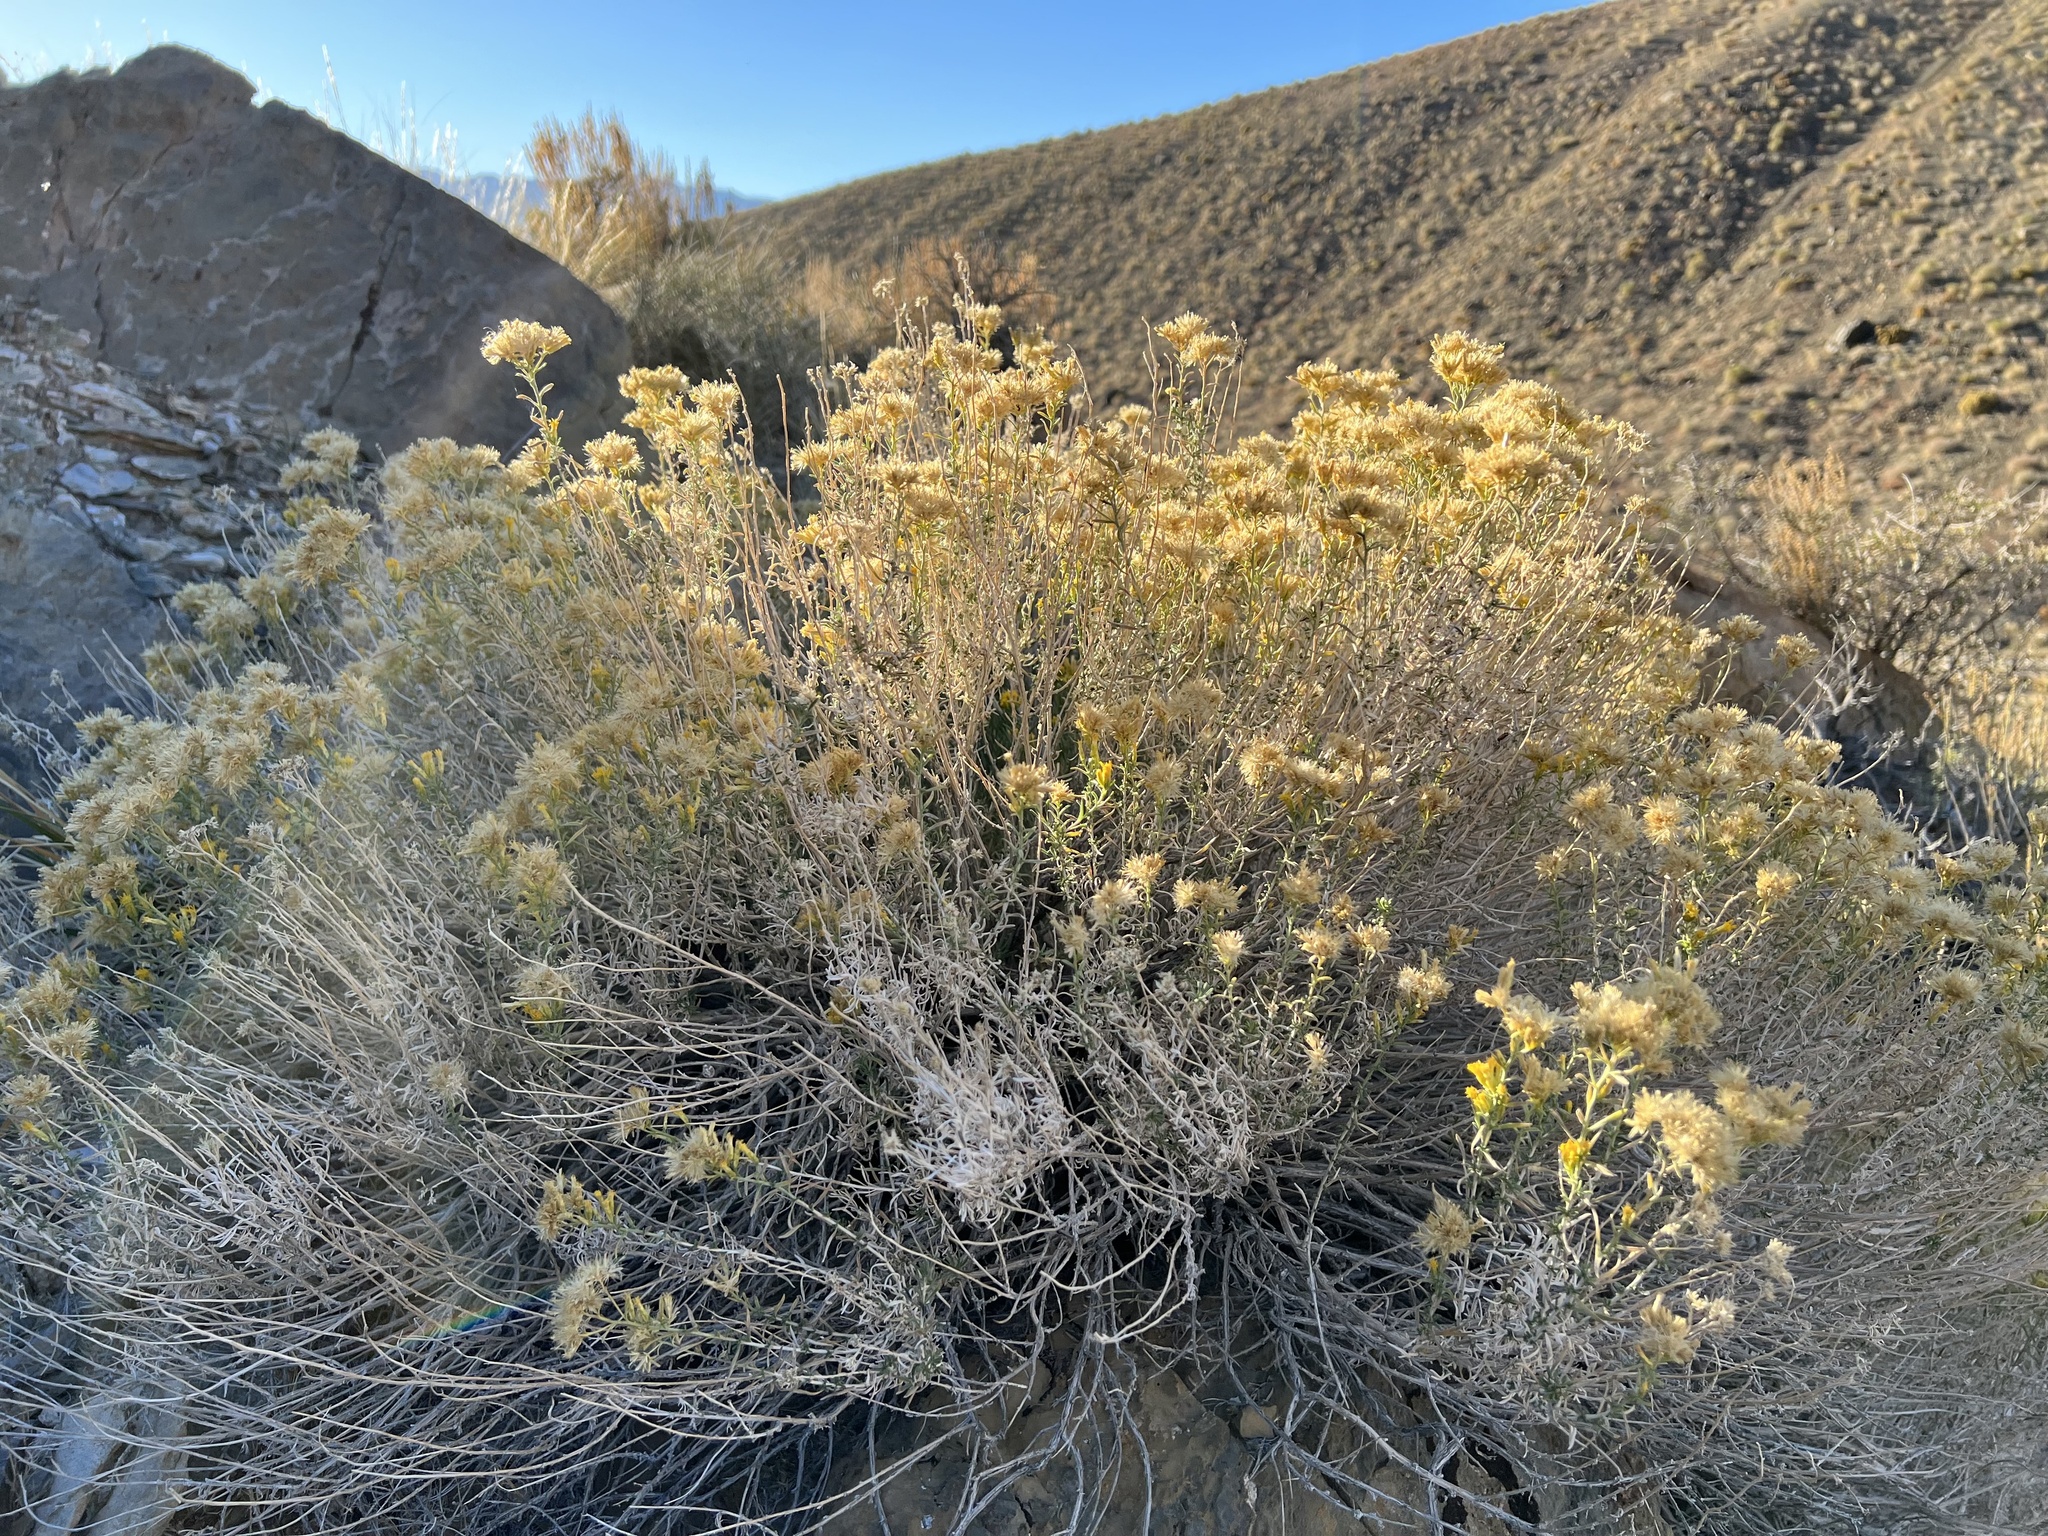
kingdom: Plantae
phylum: Tracheophyta
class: Magnoliopsida
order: Asterales
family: Asteraceae
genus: Chrysothamnus
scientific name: Chrysothamnus viscidiflorus
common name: Yellow rabbitbrush
